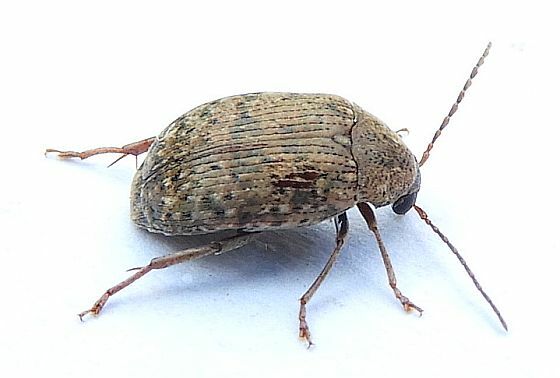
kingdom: Animalia
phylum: Arthropoda
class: Insecta
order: Coleoptera
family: Chrysomelidae
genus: Amblycerus
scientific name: Amblycerus robiniae
